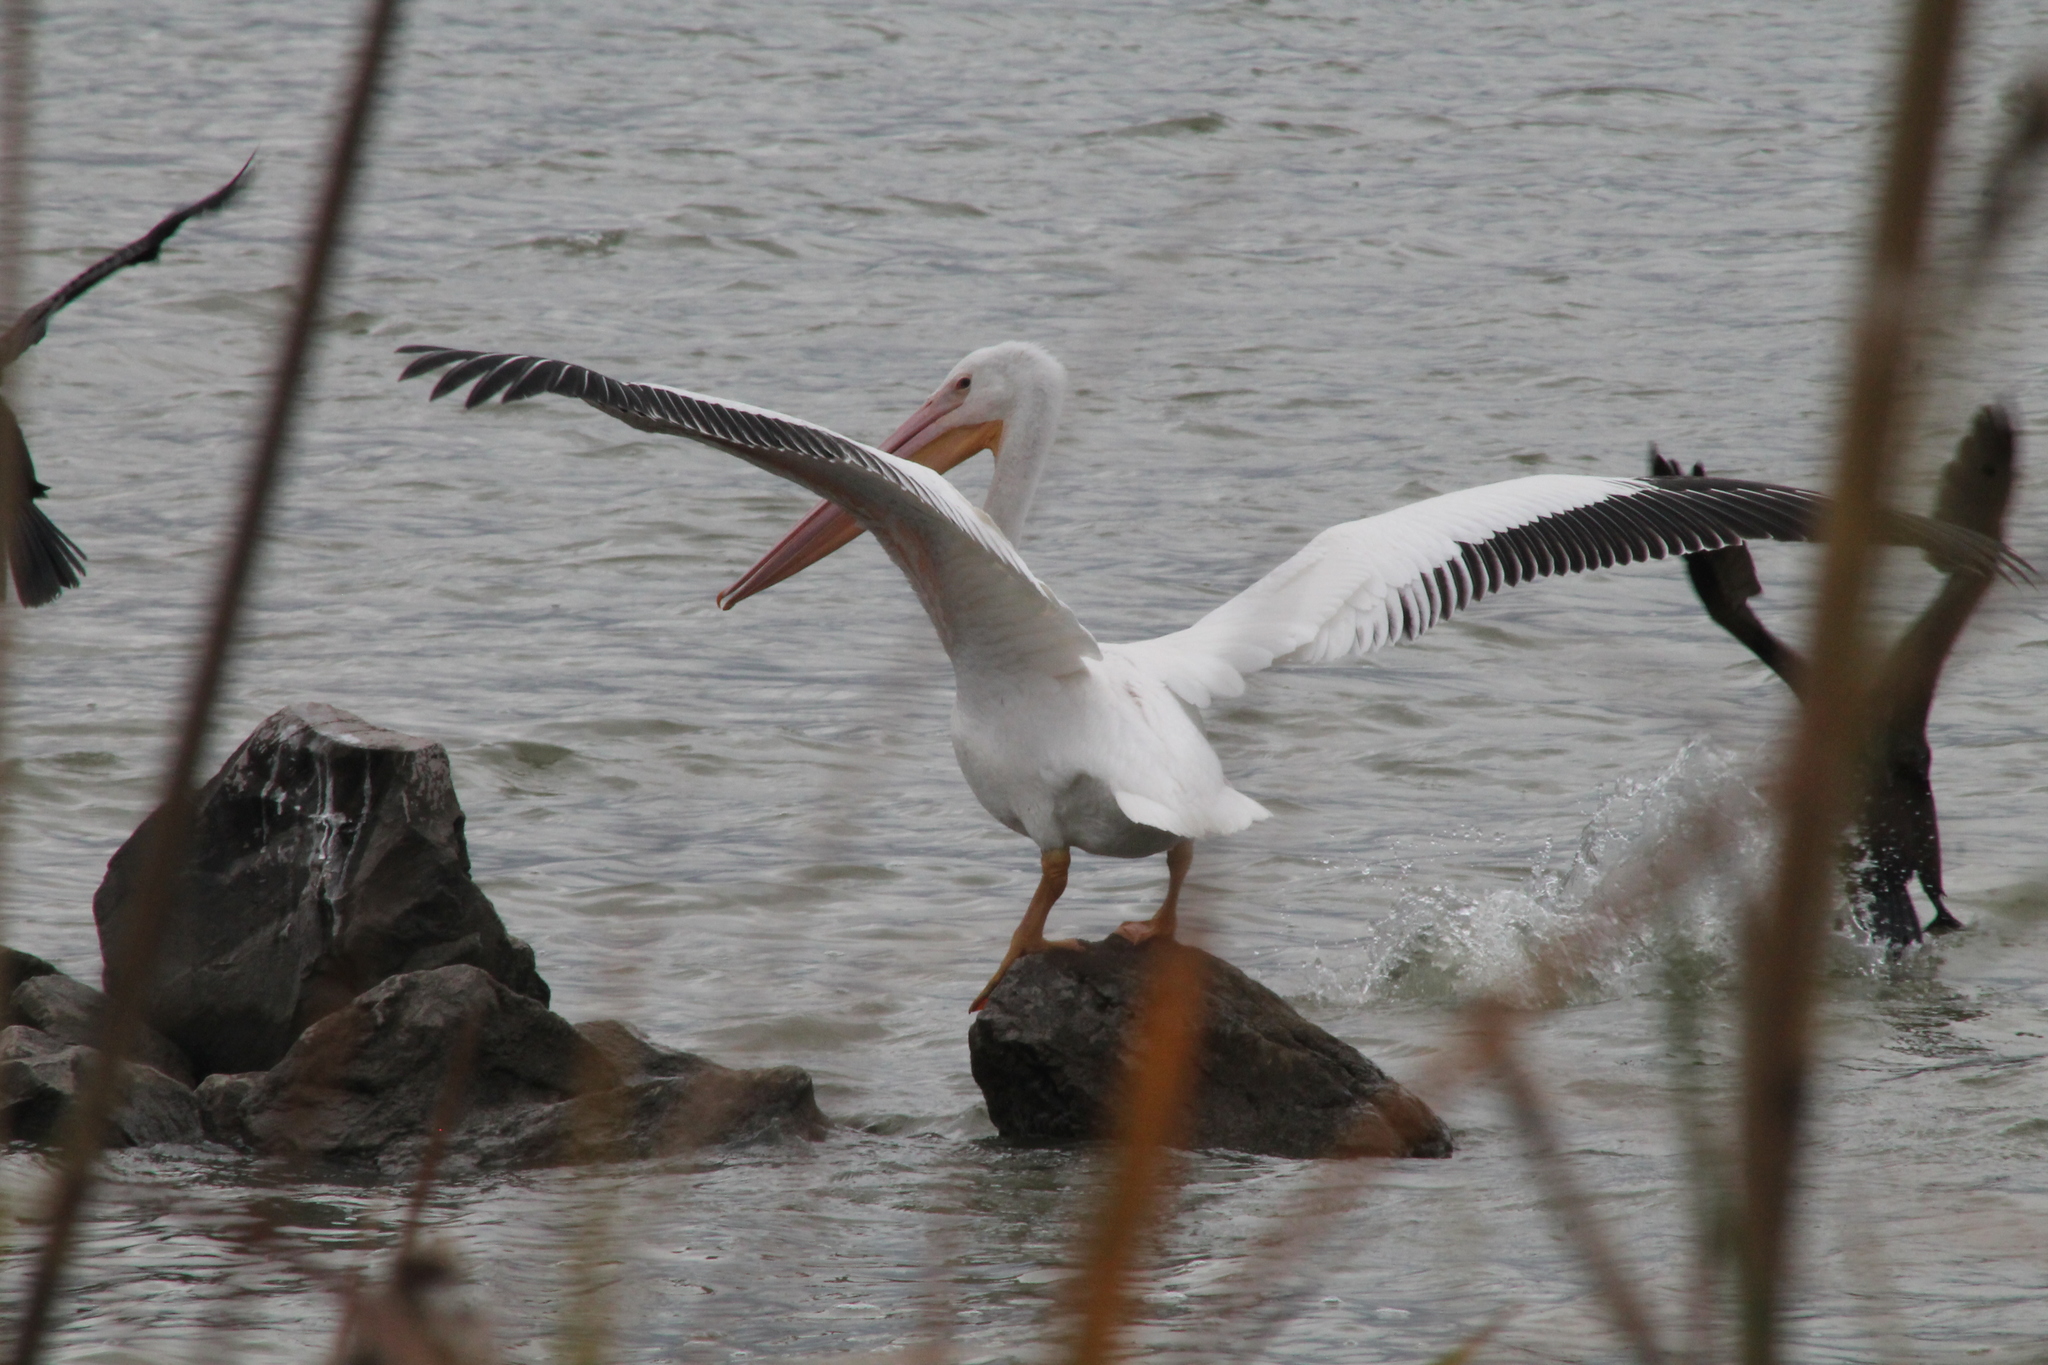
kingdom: Animalia
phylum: Chordata
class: Aves
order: Pelecaniformes
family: Pelecanidae
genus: Pelecanus
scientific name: Pelecanus erythrorhynchos
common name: American white pelican
